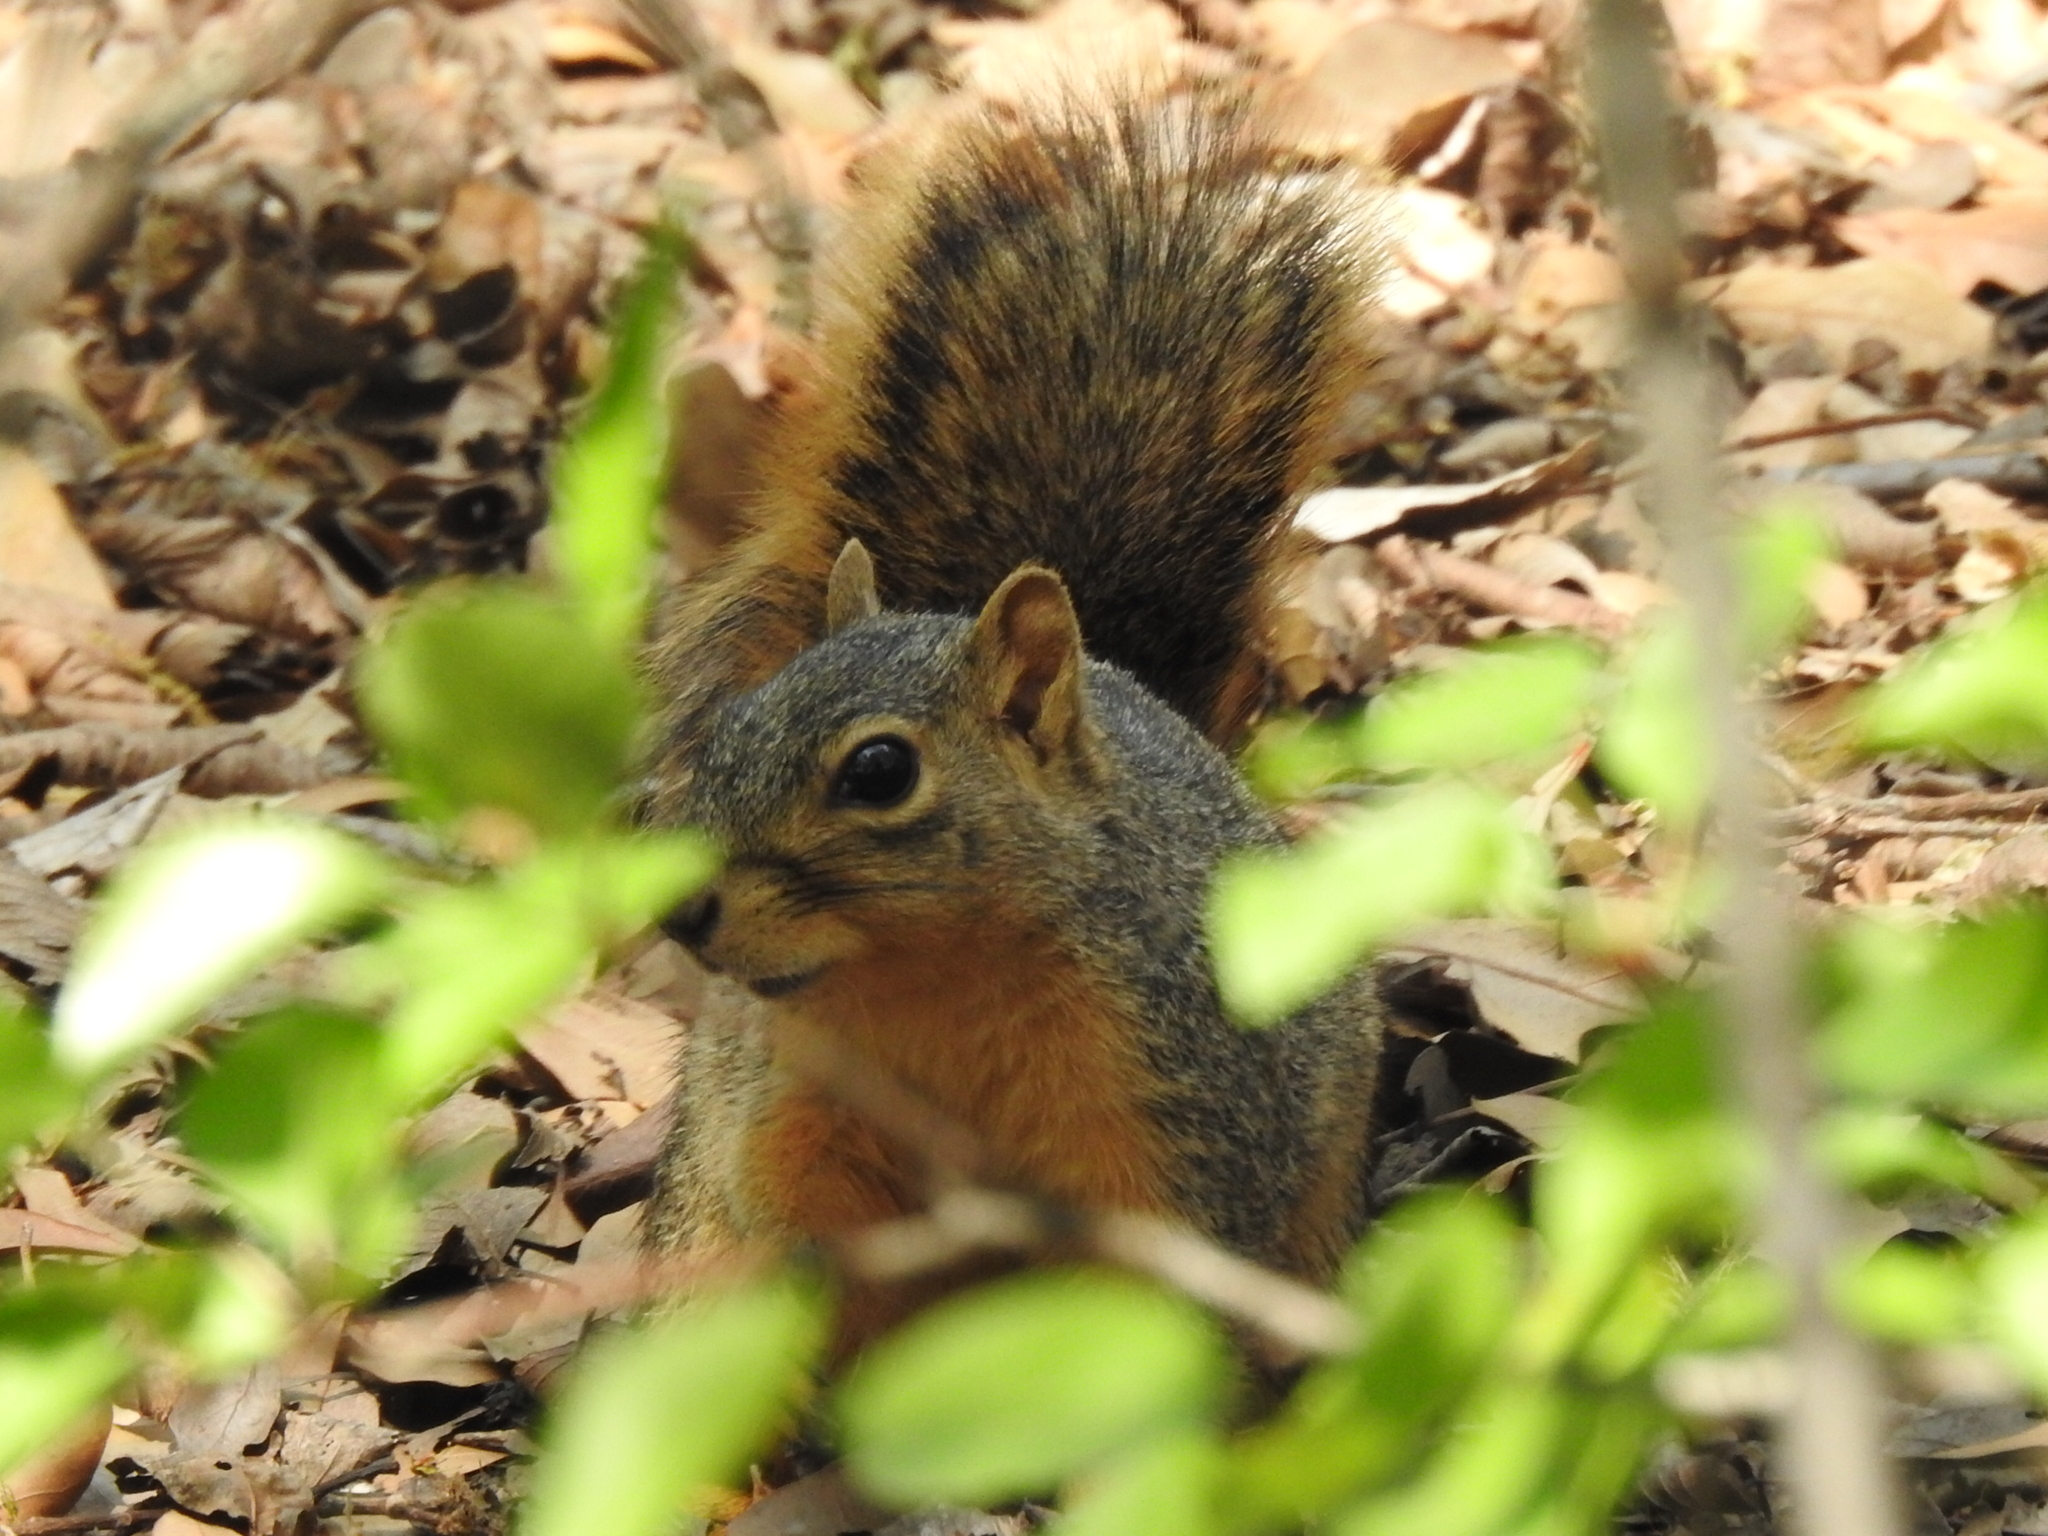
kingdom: Animalia
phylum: Chordata
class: Mammalia
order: Rodentia
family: Sciuridae
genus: Sciurus
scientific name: Sciurus niger
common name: Fox squirrel
